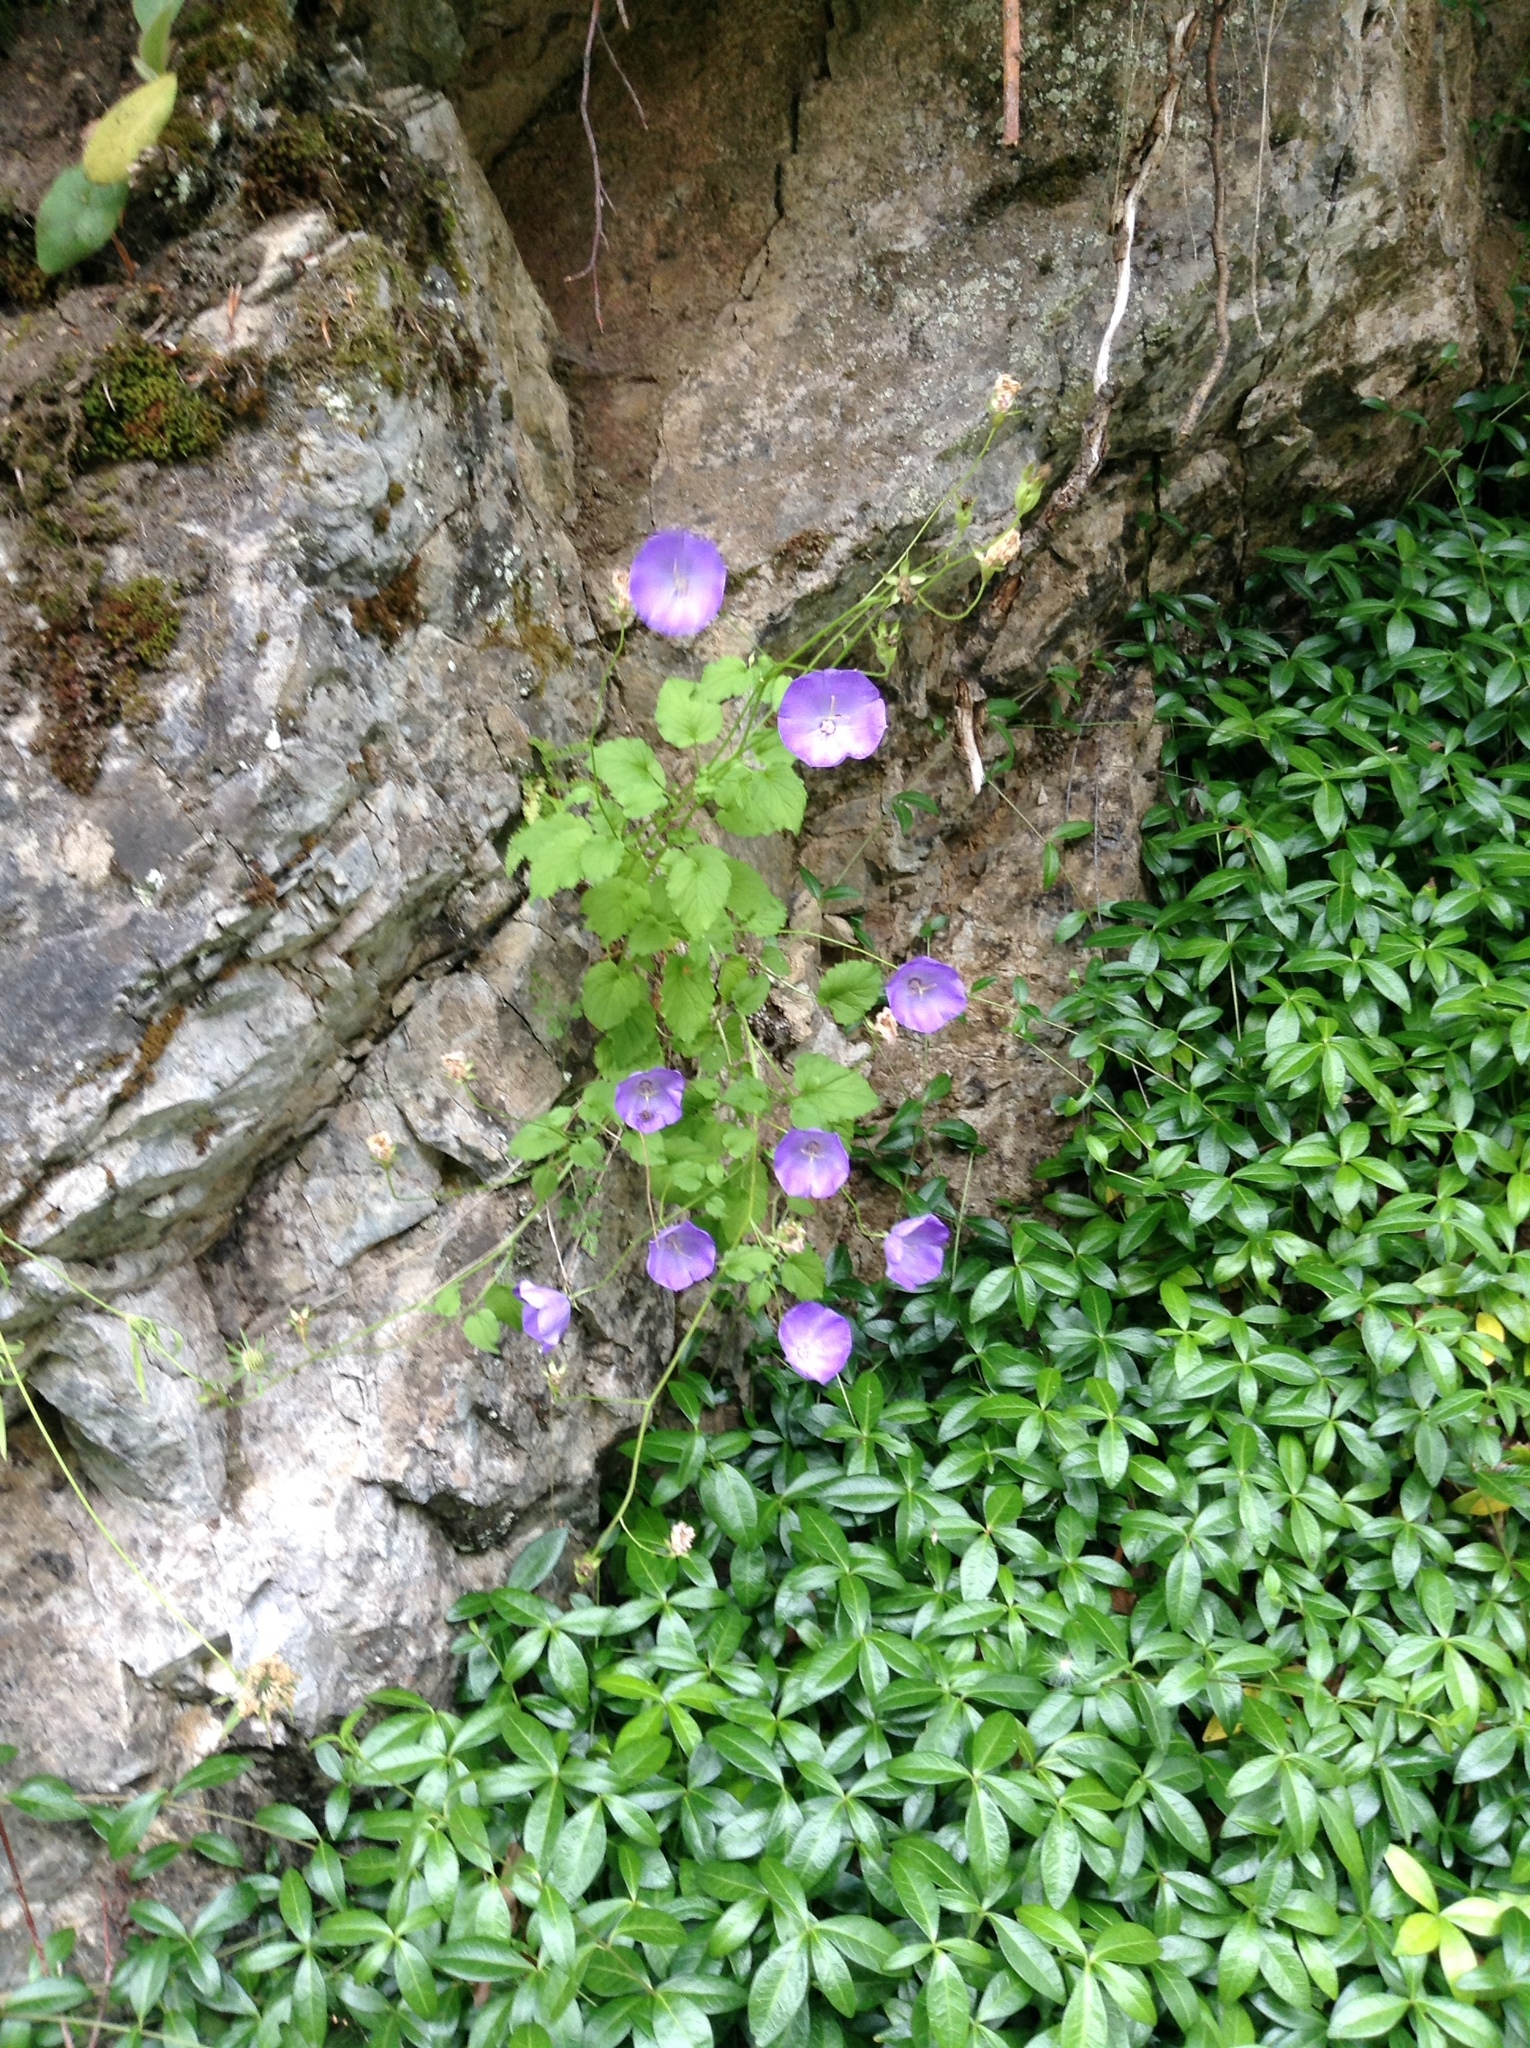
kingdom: Plantae
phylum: Tracheophyta
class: Magnoliopsida
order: Asterales
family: Campanulaceae
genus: Campanula
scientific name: Campanula carpatica
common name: Tussock bellflower
